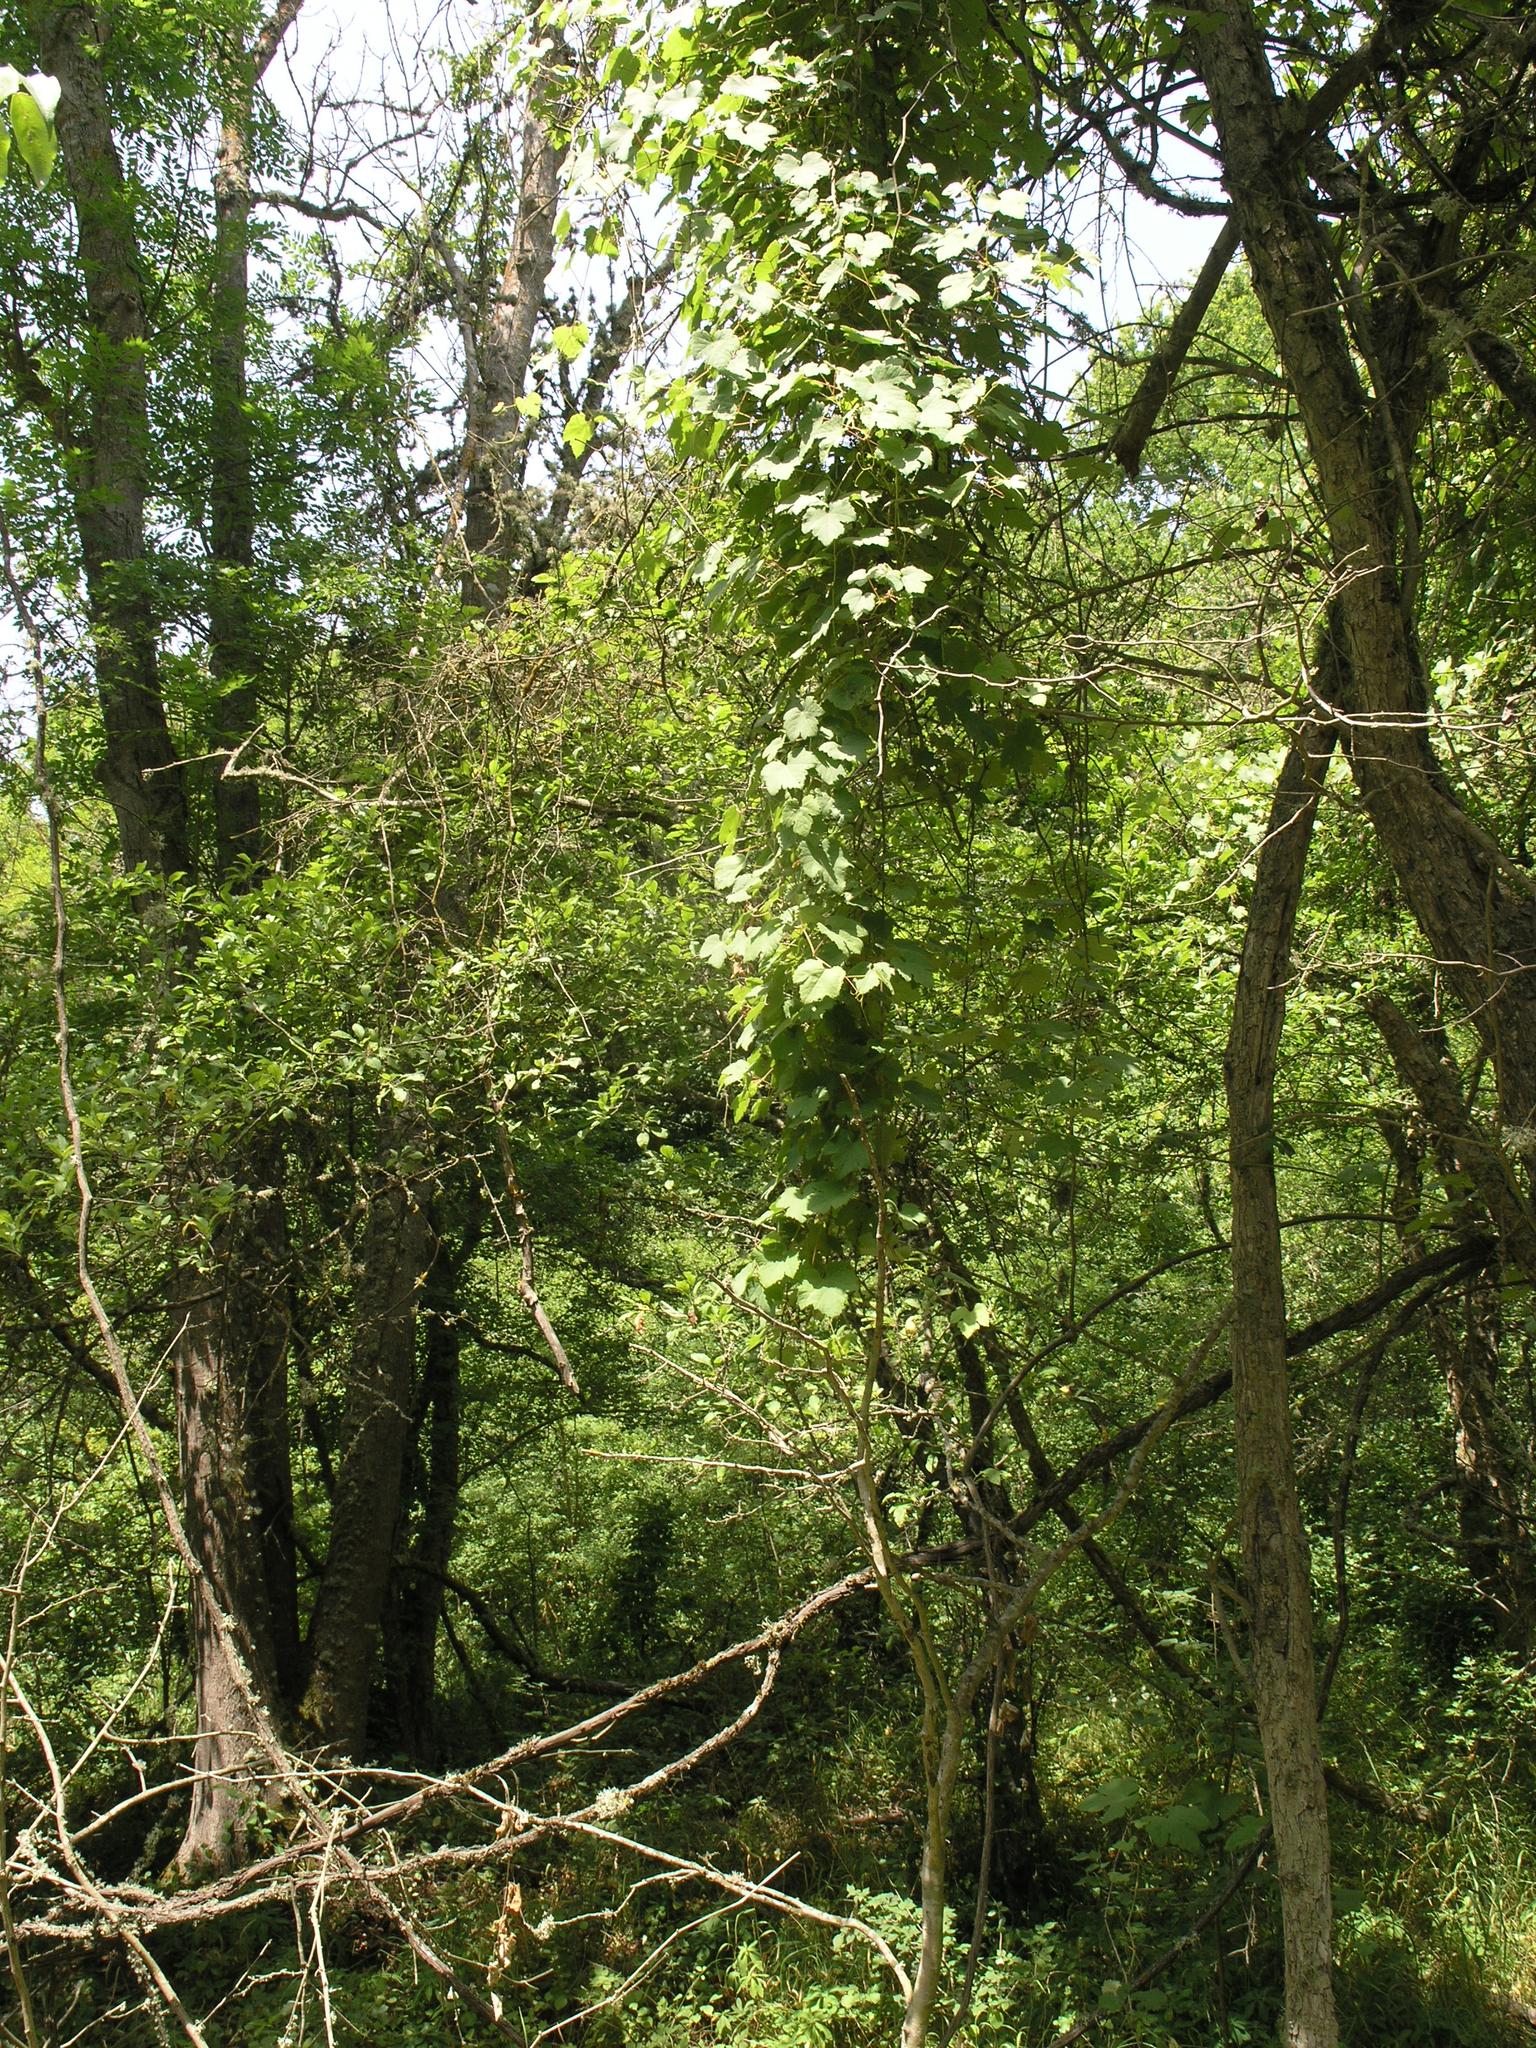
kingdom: Plantae
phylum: Tracheophyta
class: Magnoliopsida
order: Vitales
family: Vitaceae
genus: Vitis
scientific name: Vitis gmelinii
